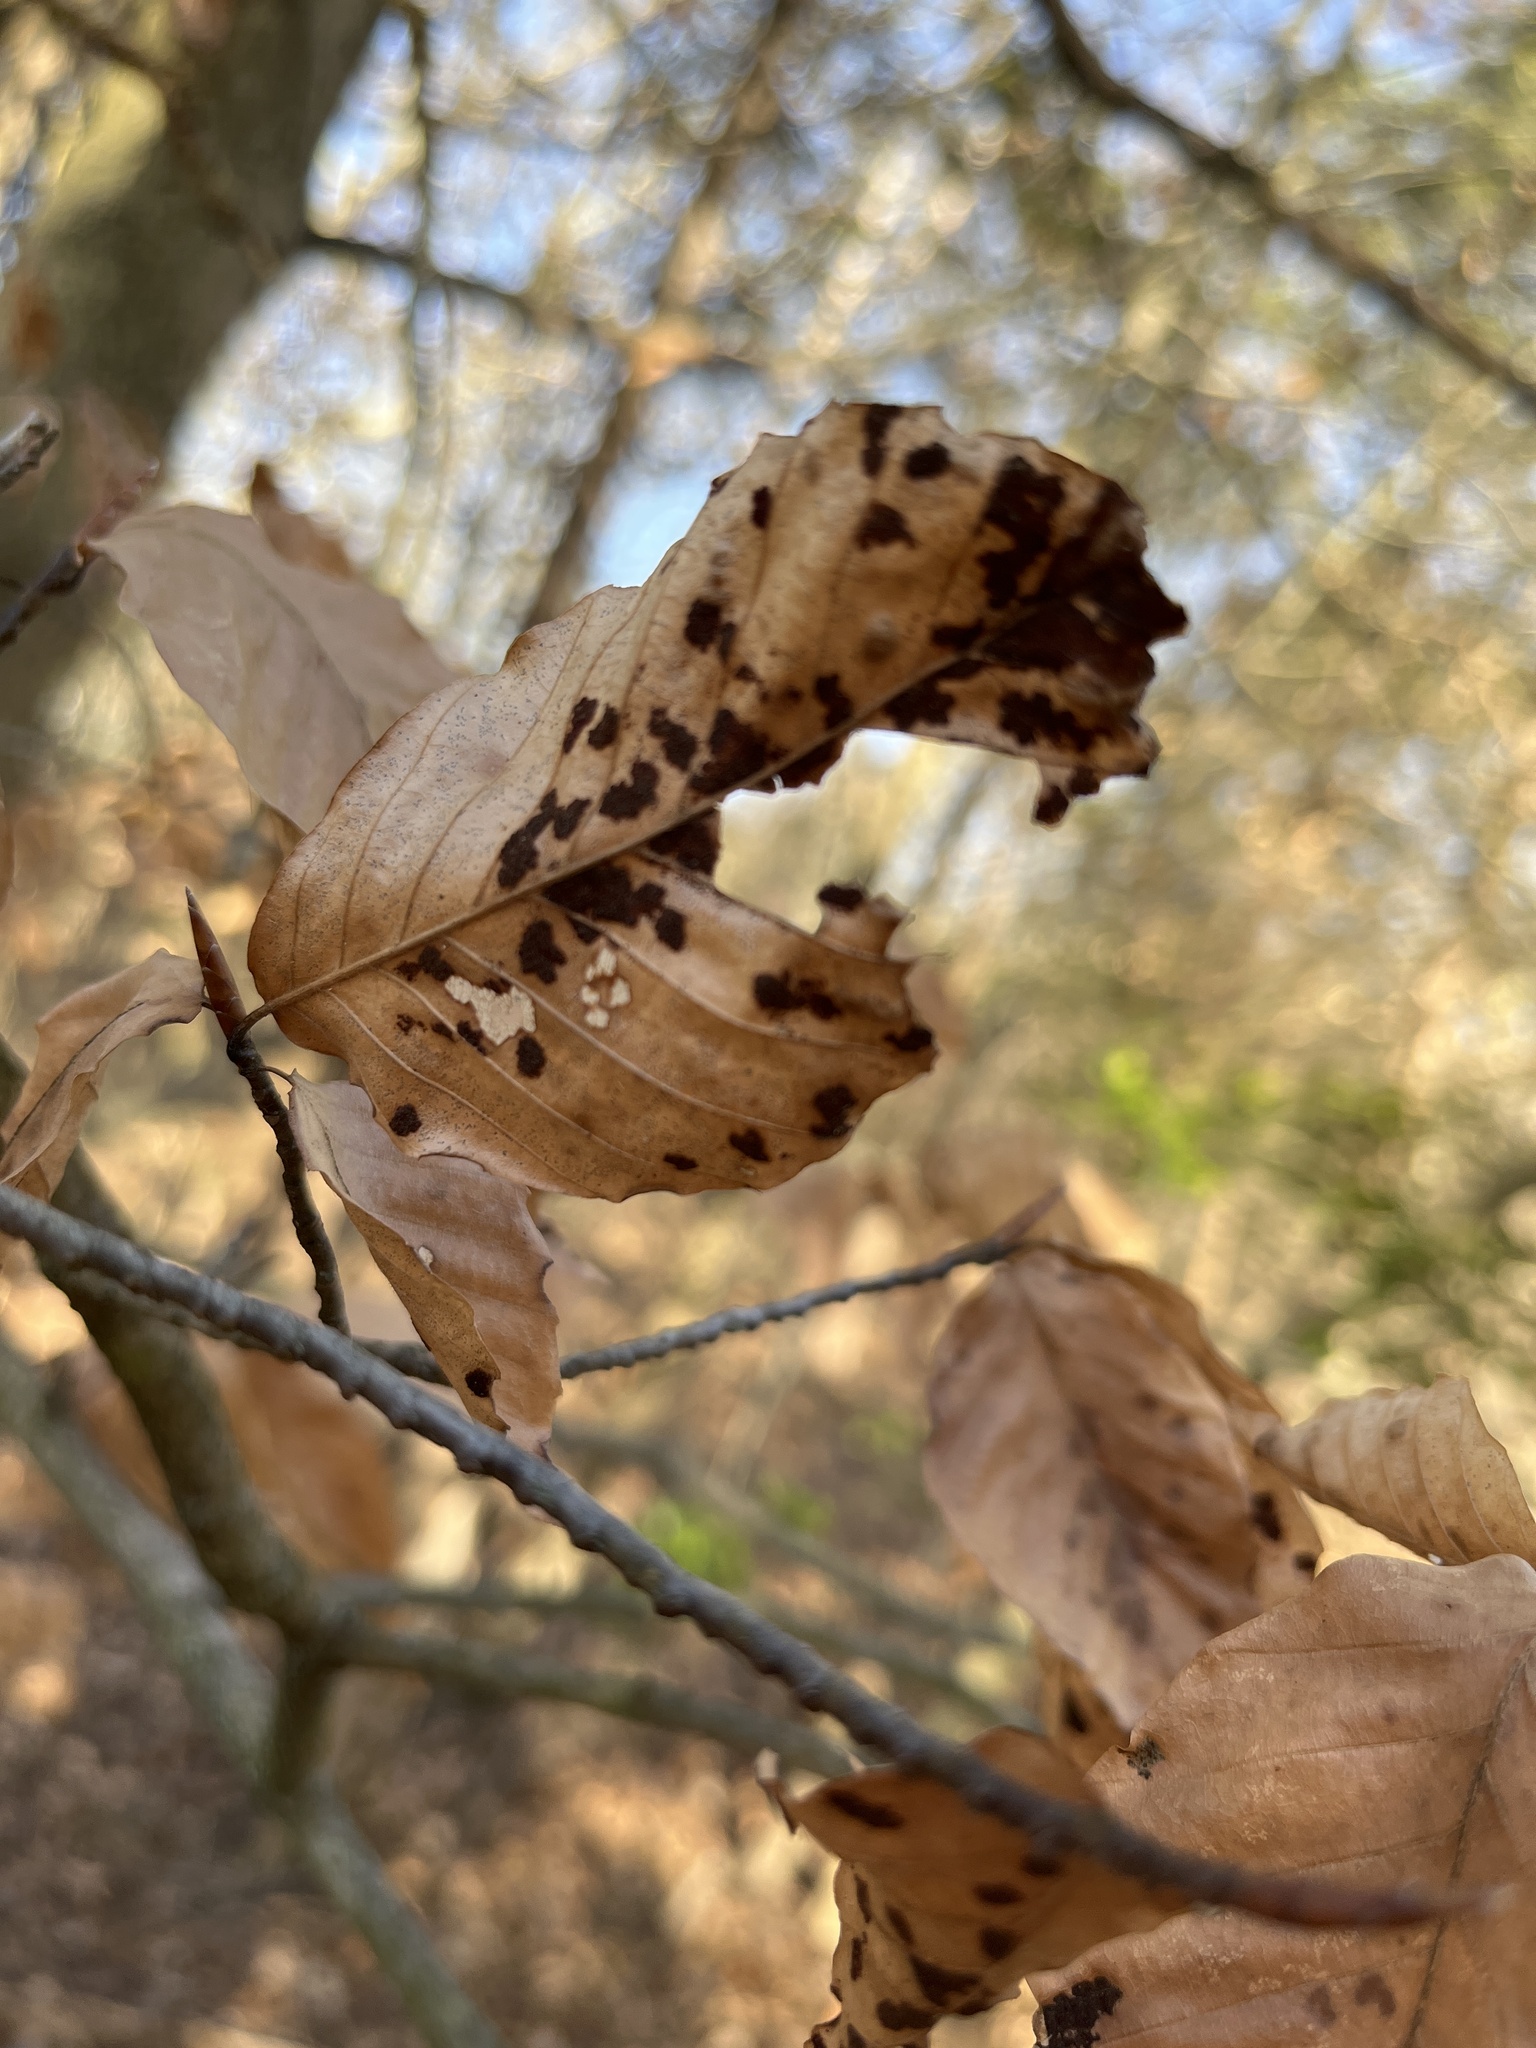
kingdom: Animalia
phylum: Arthropoda
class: Arachnida
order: Trombidiformes
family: Eriophyidae
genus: Acalitus
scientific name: Acalitus
